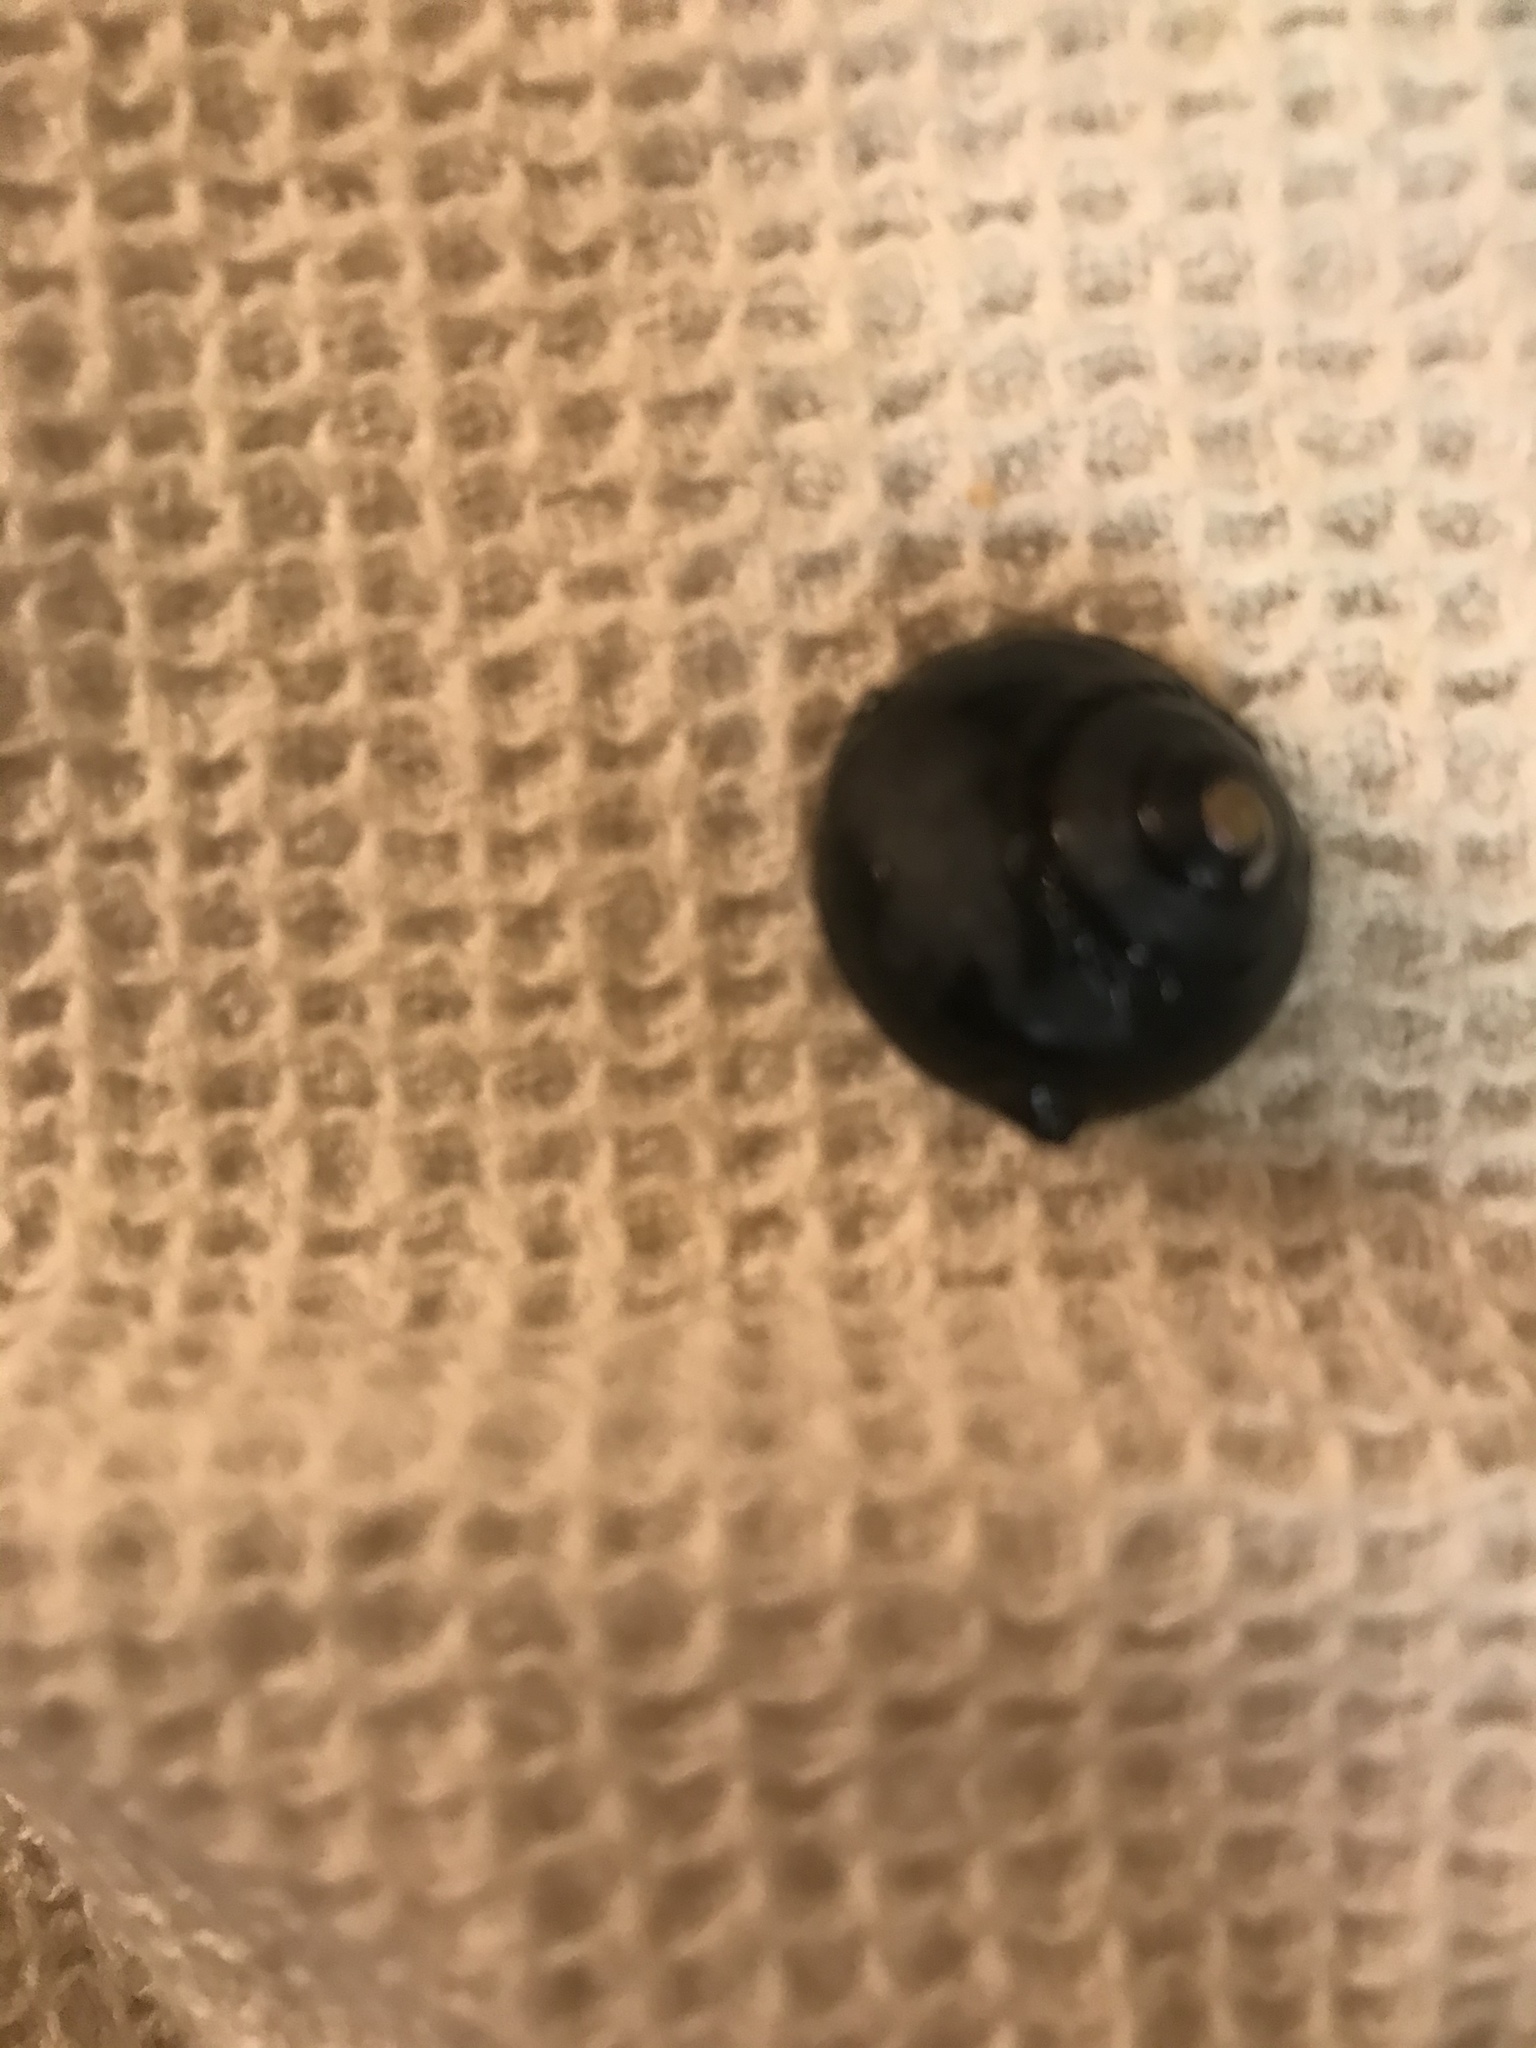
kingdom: Animalia
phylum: Mollusca
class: Gastropoda
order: Trochida
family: Tegulidae
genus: Tegula
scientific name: Tegula funebralis
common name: Black tegula
